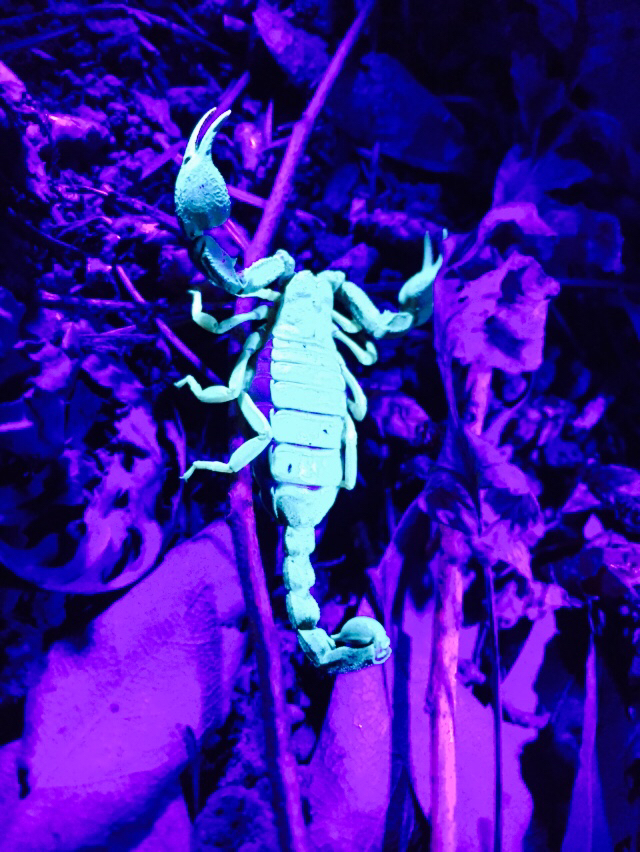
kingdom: Animalia
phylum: Arthropoda
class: Arachnida
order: Scorpiones
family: Chactidae
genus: Uroctonus
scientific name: Uroctonus mordax
